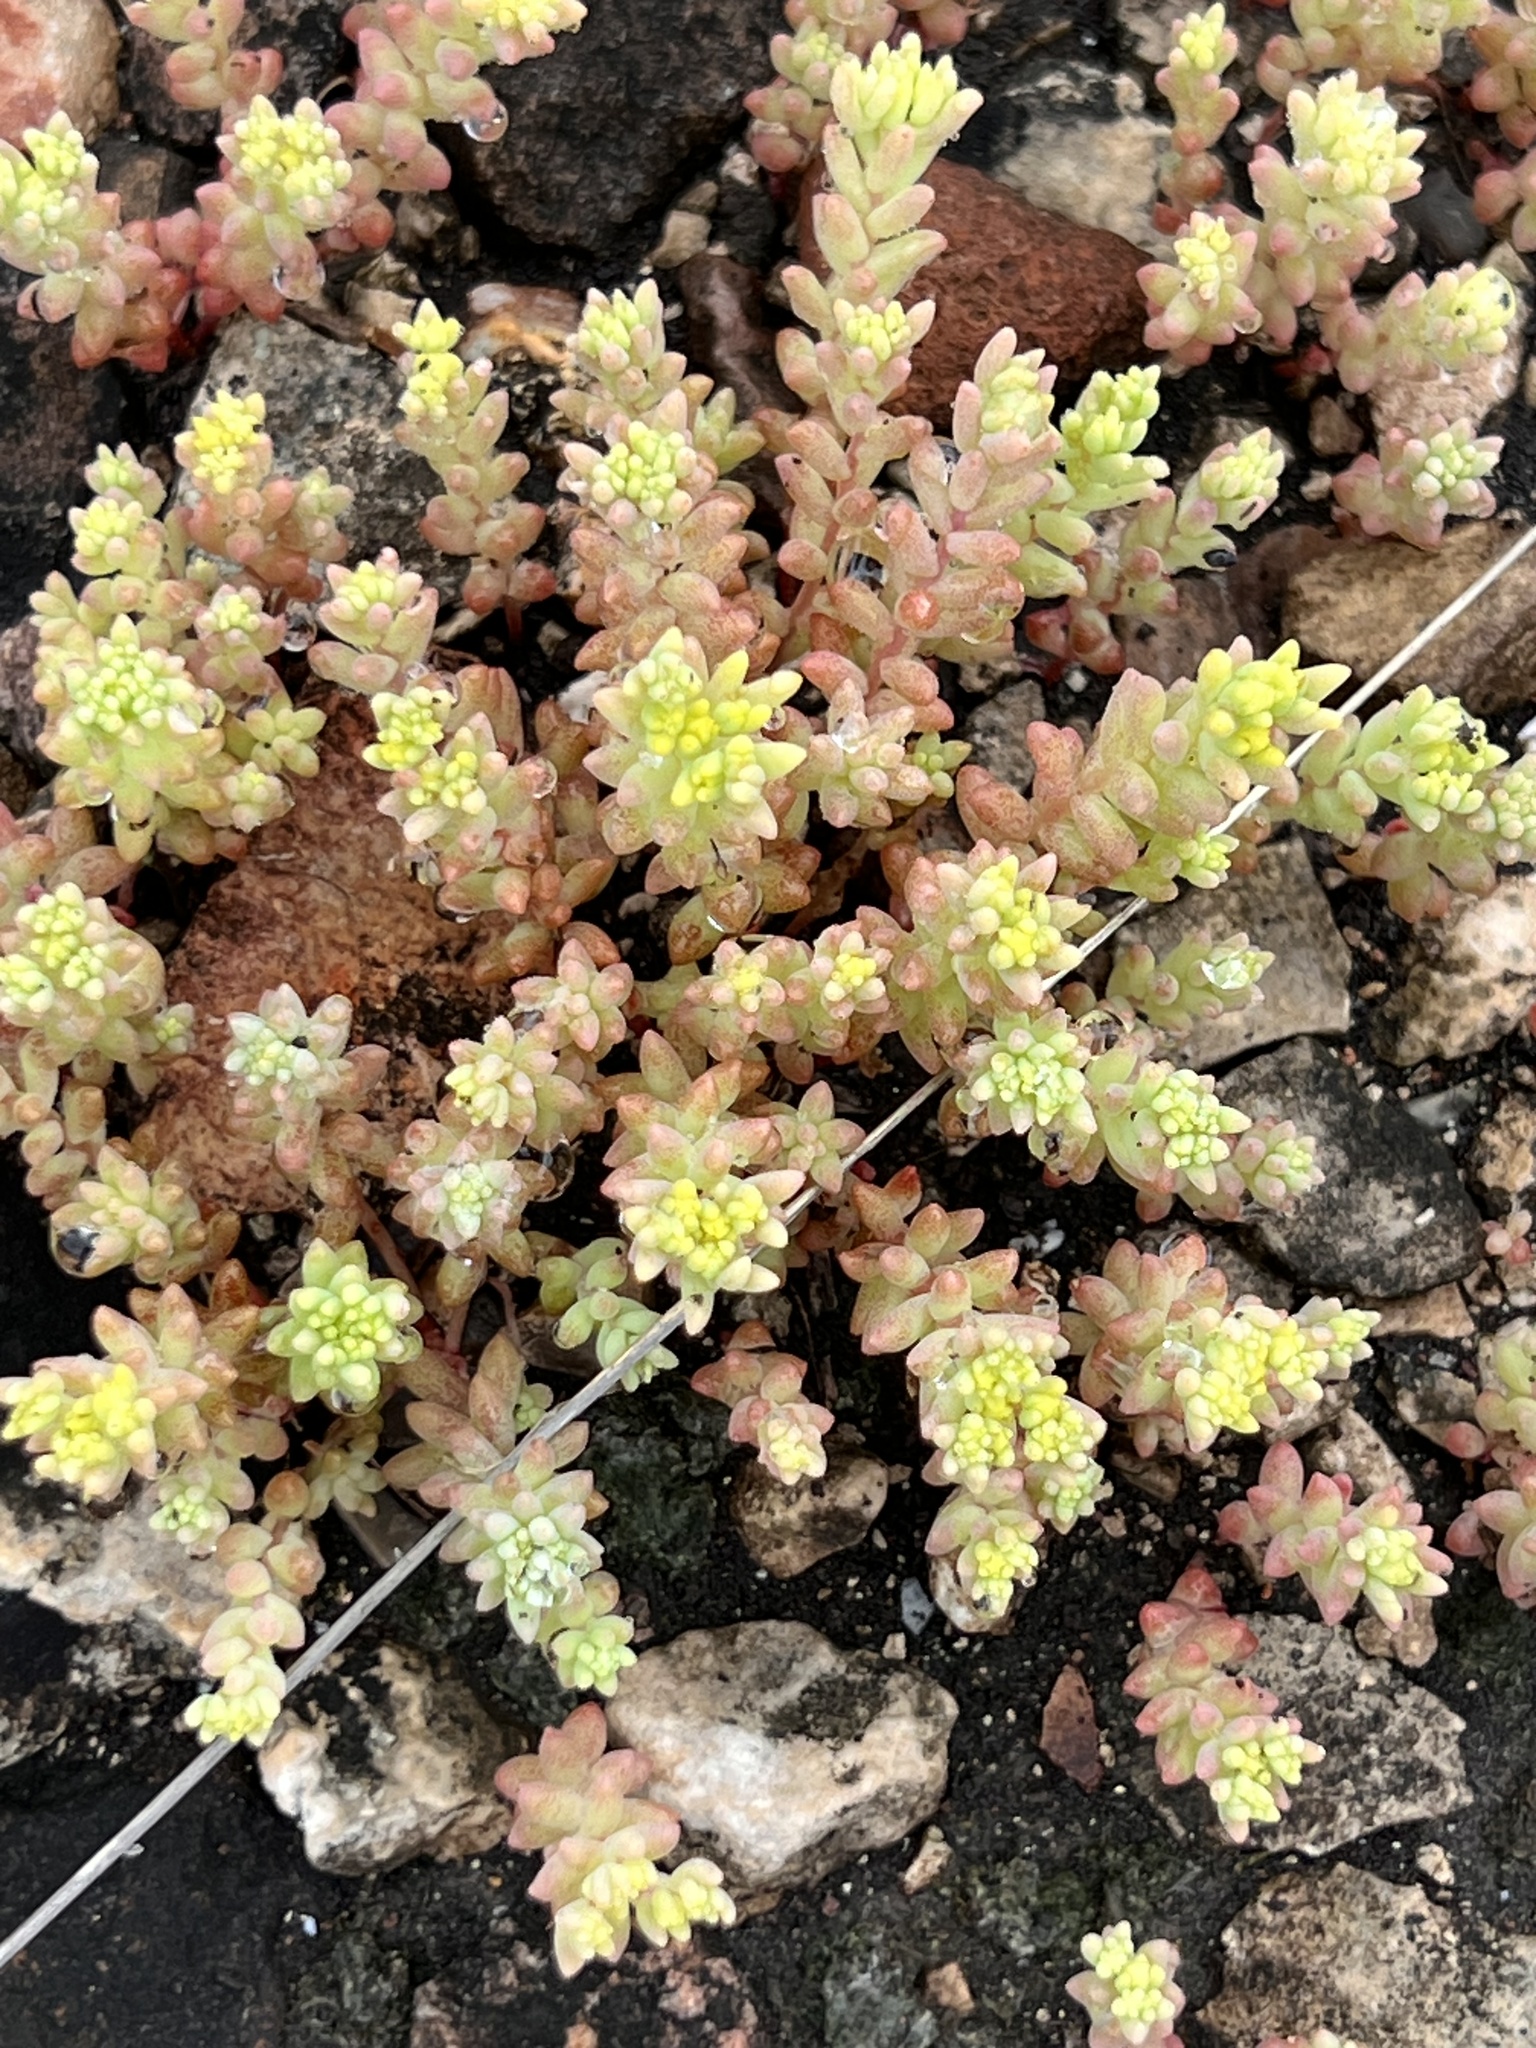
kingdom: Plantae
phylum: Tracheophyta
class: Magnoliopsida
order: Saxifragales
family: Crassulaceae
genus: Sedum
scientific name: Sedum nuttallii
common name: Yellow stonecrop
